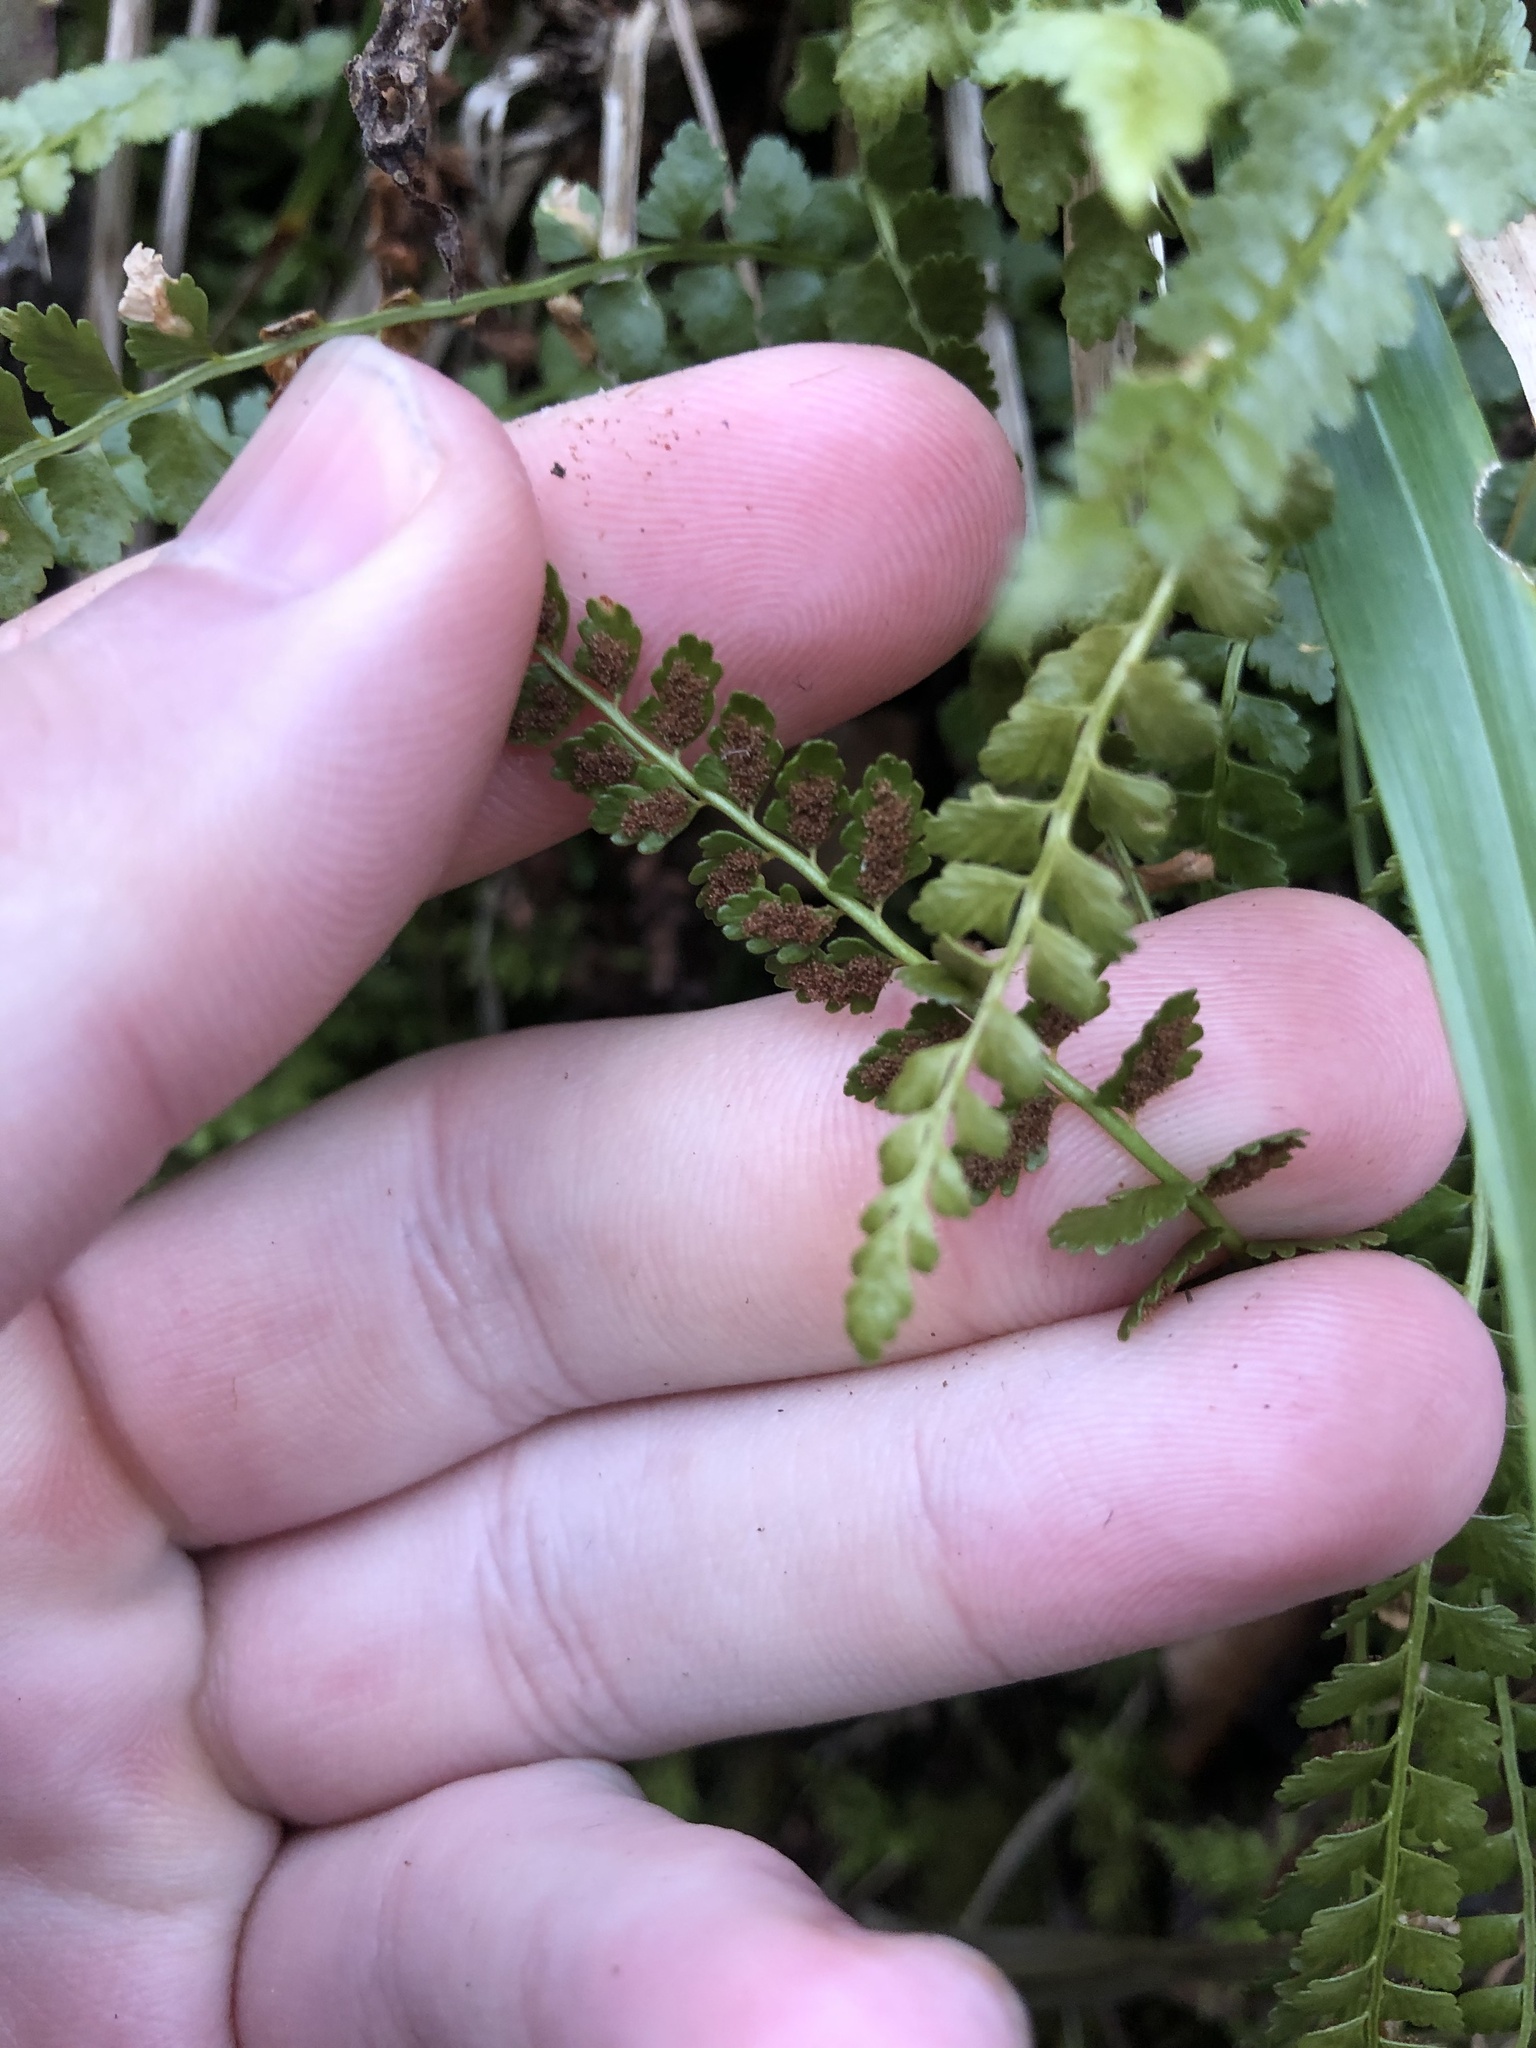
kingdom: Plantae
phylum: Tracheophyta
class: Polypodiopsida
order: Polypodiales
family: Aspleniaceae
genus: Asplenium
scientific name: Asplenium viride
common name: Green spleenwort
